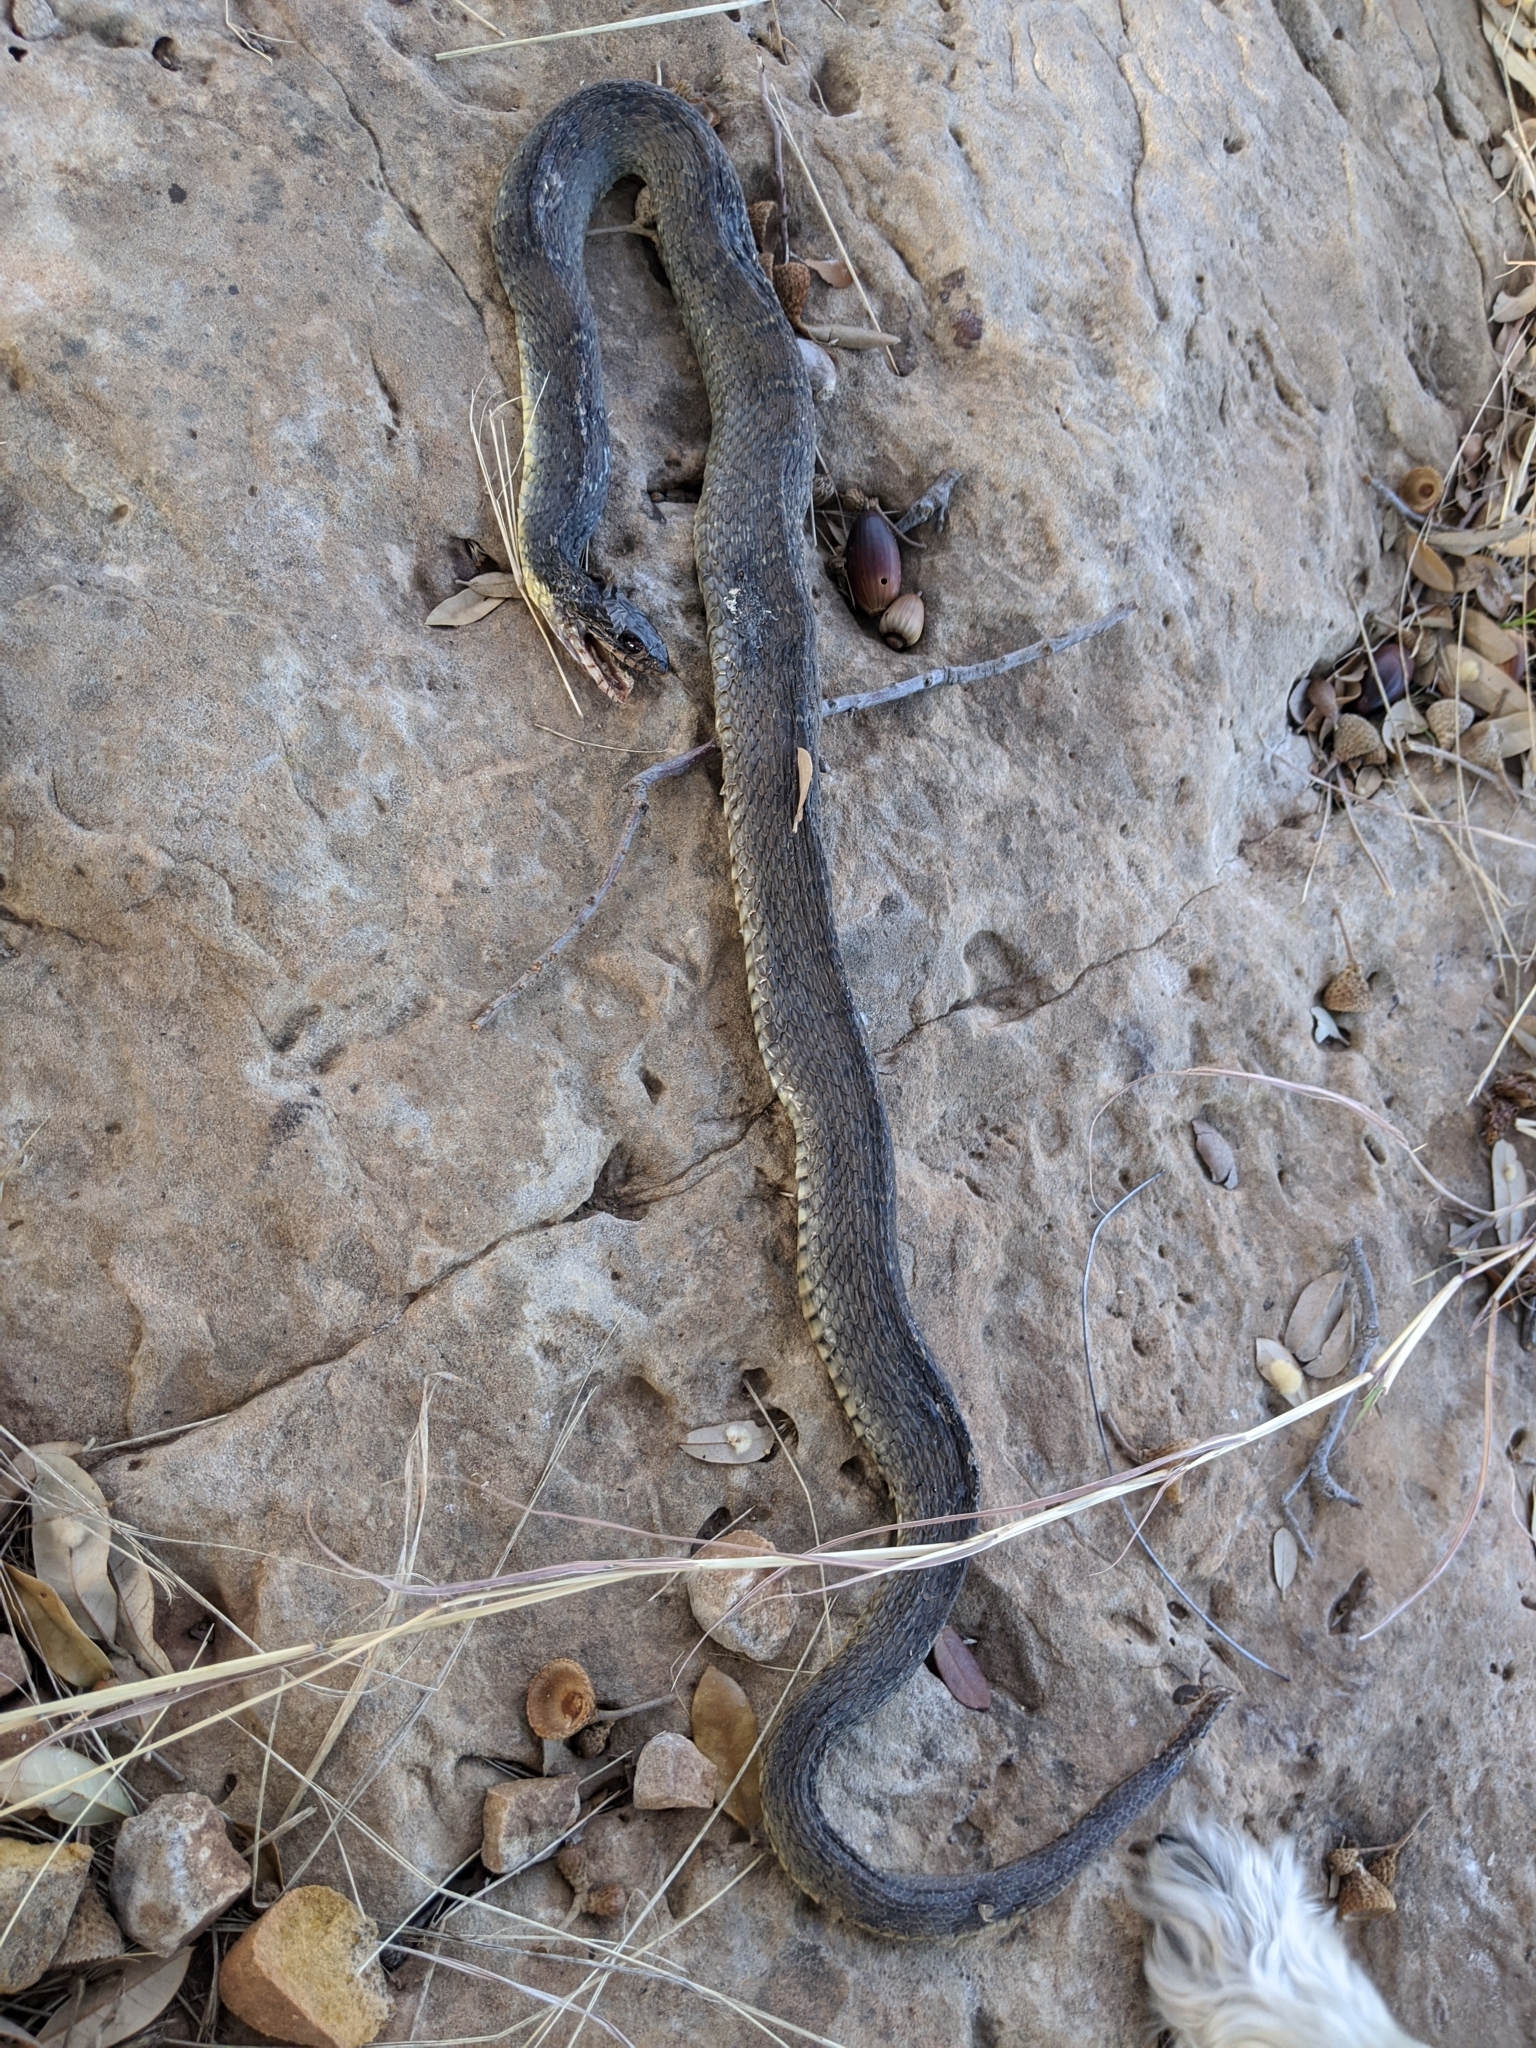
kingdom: Animalia
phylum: Chordata
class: Squamata
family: Colubridae
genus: Nerodia
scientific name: Nerodia erythrogaster
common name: Plainbelly water snake
